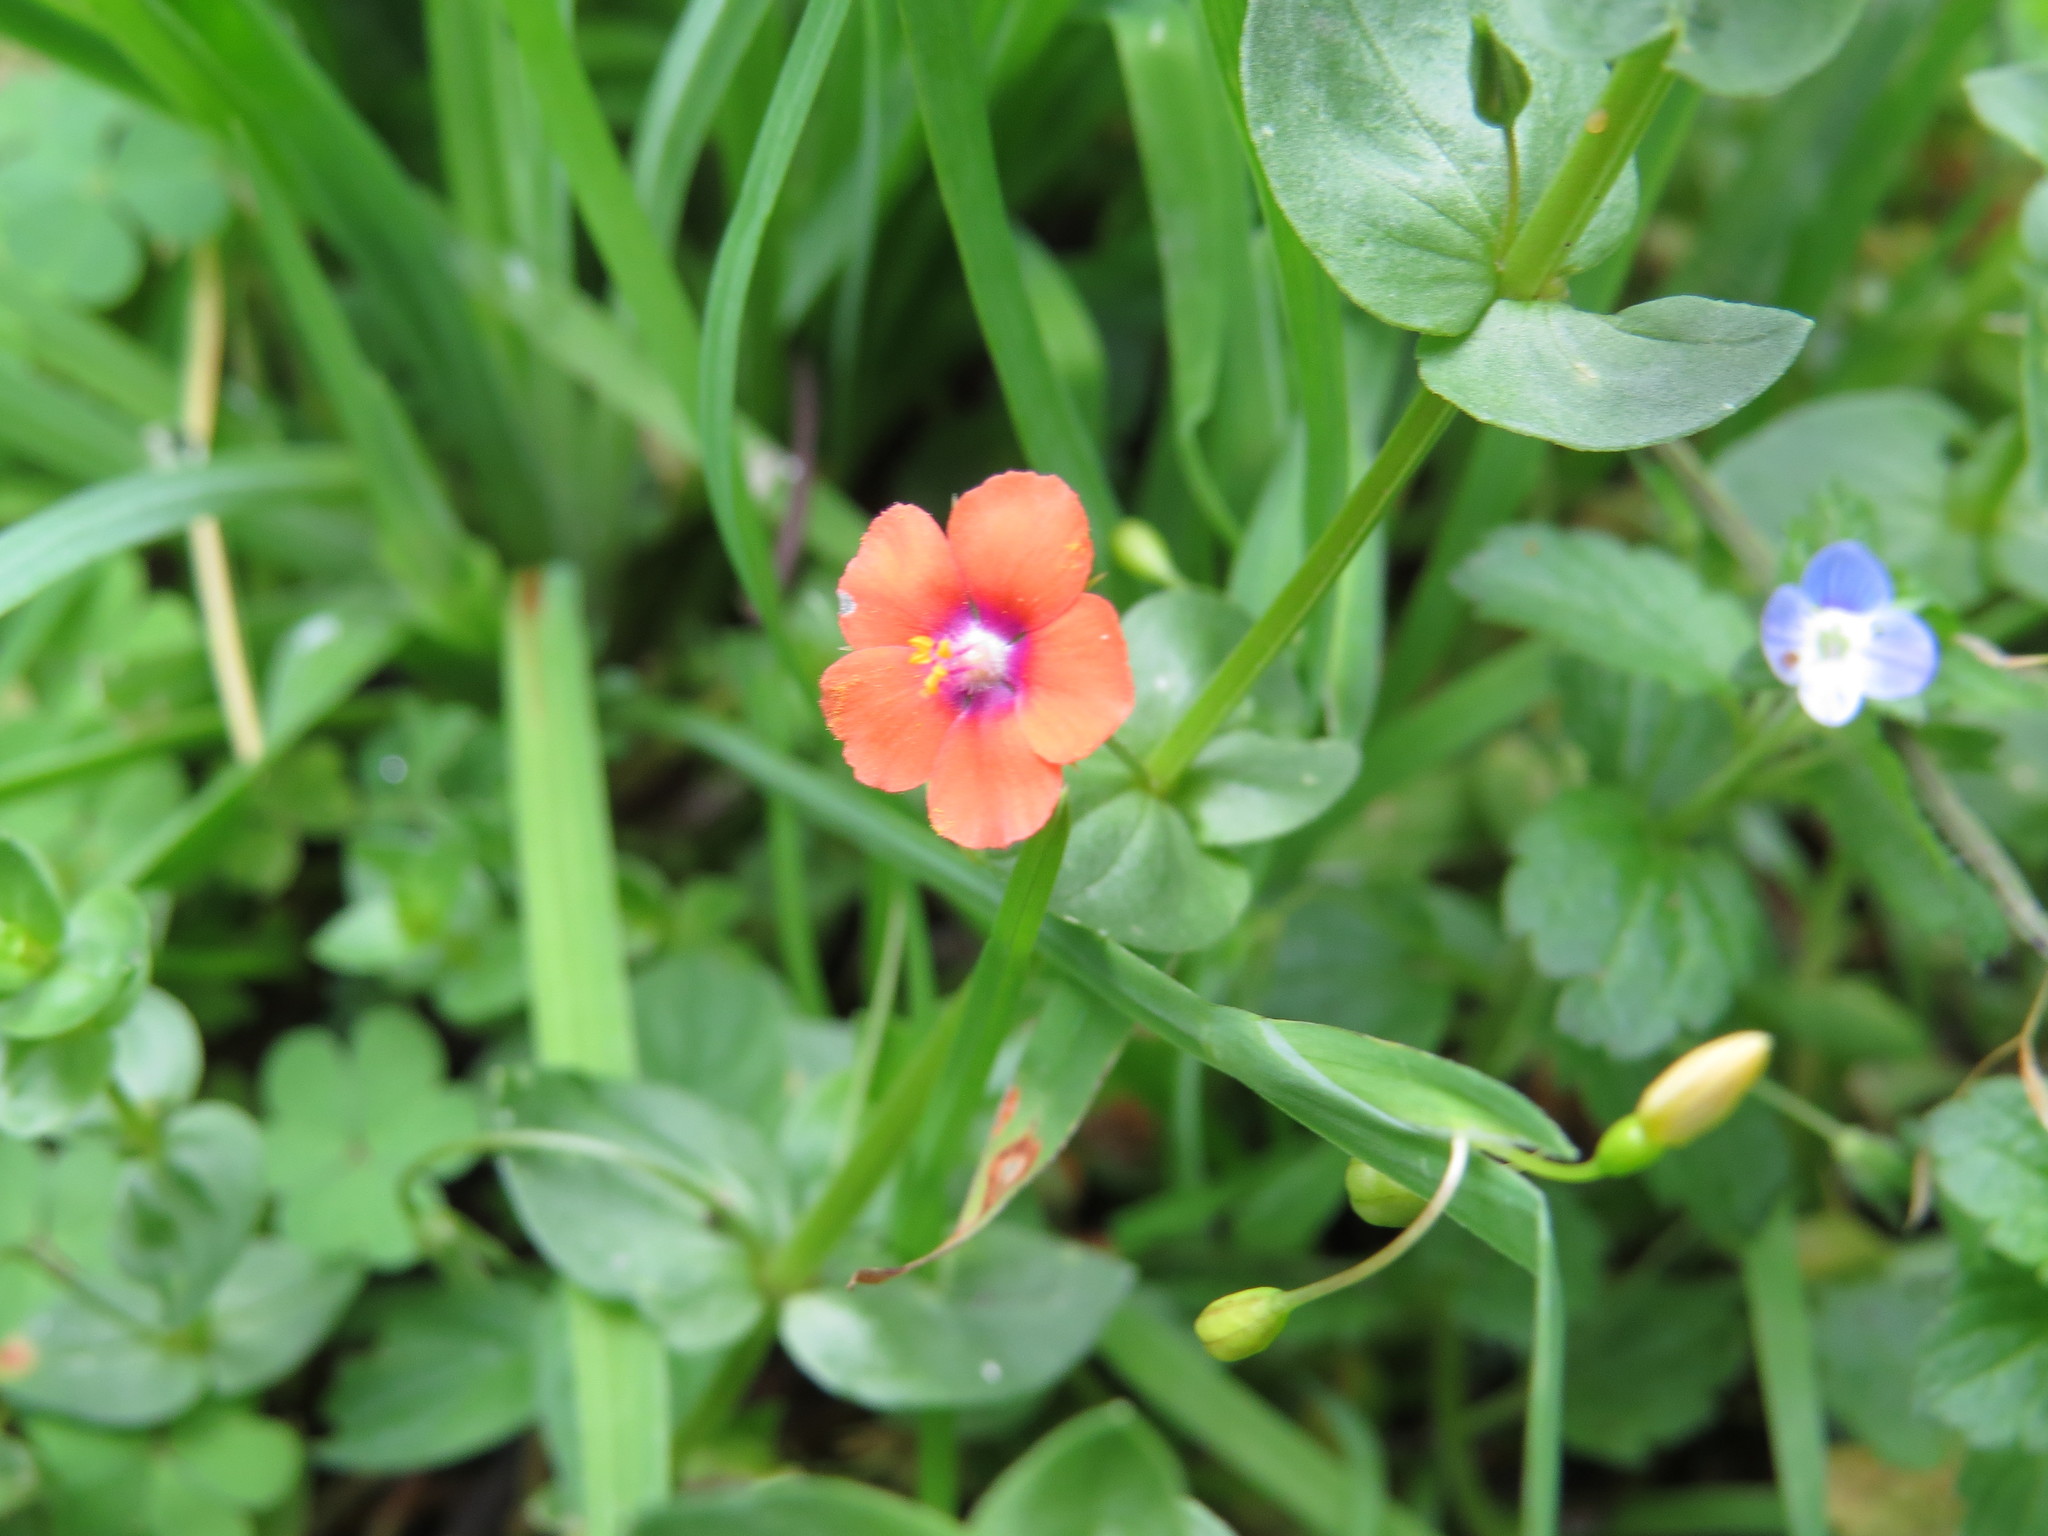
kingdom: Plantae
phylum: Tracheophyta
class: Magnoliopsida
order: Ericales
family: Primulaceae
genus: Lysimachia
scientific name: Lysimachia arvensis
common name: Scarlet pimpernel
